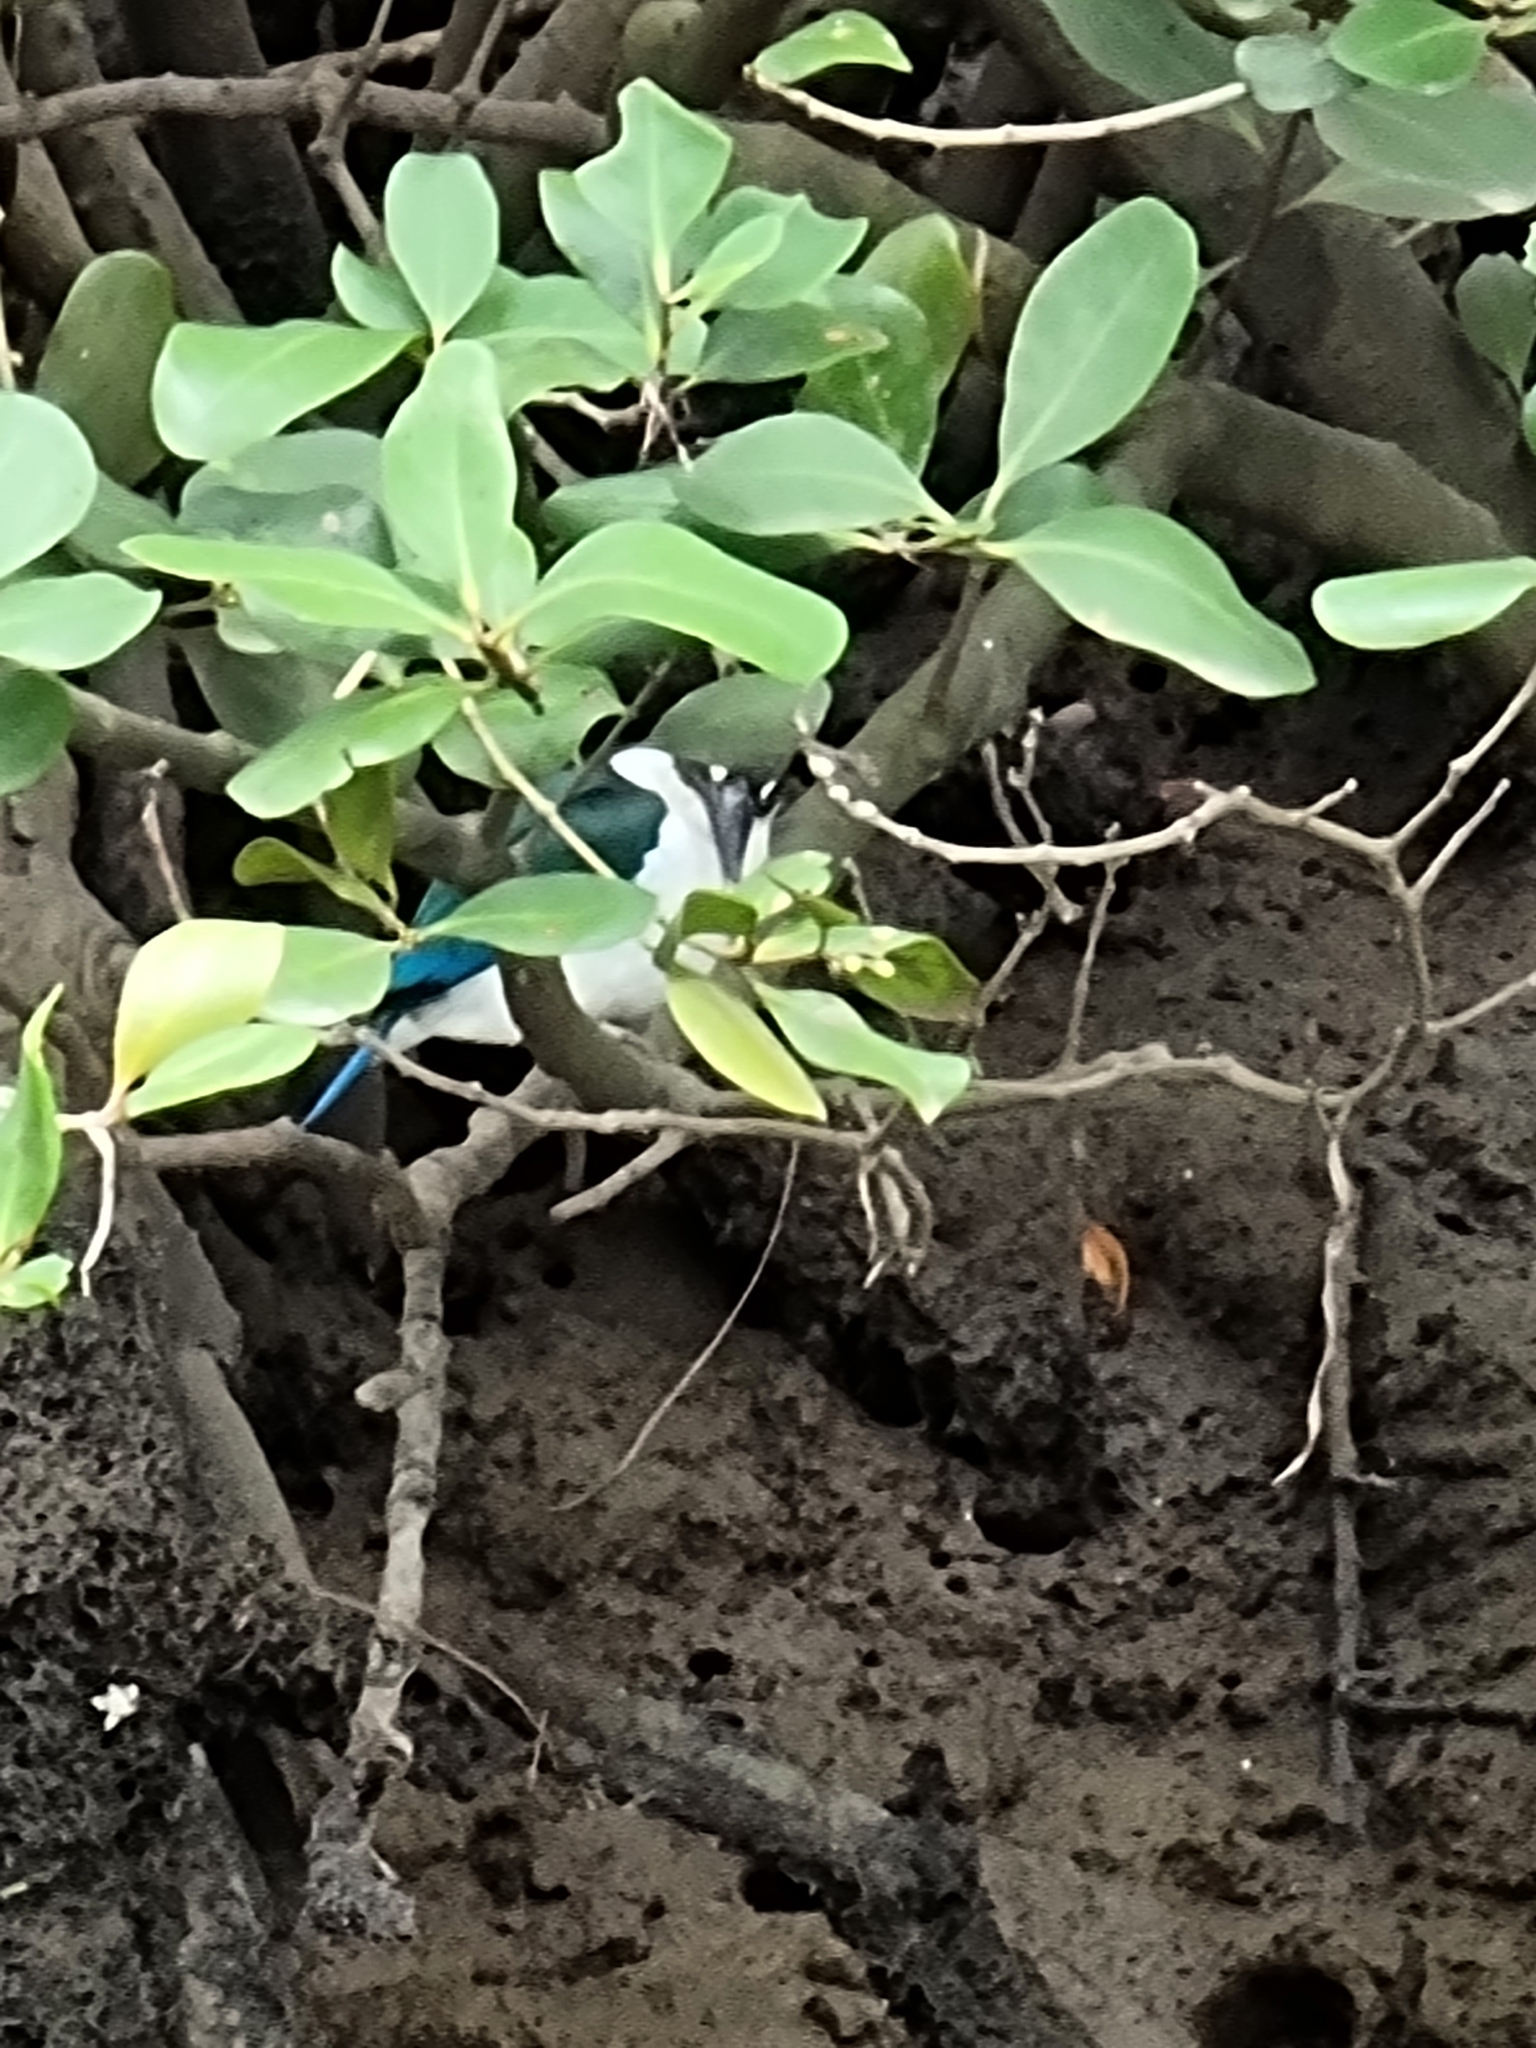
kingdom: Animalia
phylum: Chordata
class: Aves
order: Coraciiformes
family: Alcedinidae
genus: Todiramphus
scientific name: Todiramphus sordidus
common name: Torresian kingfisher
